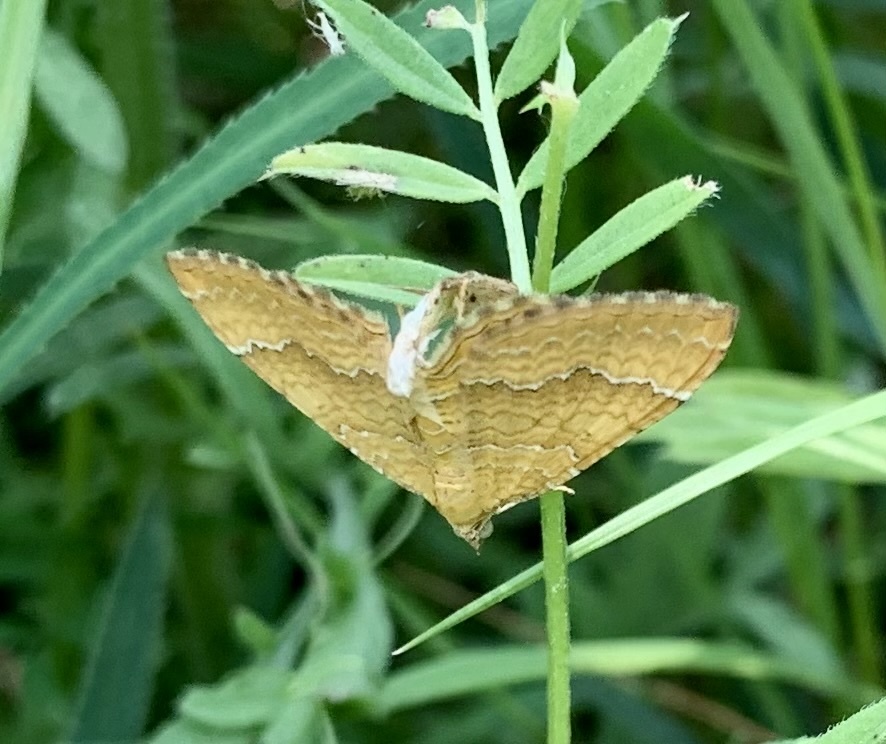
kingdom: Animalia
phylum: Arthropoda
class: Insecta
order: Lepidoptera
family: Geometridae
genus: Camptogramma
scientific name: Camptogramma bilineata
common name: Yellow shell
